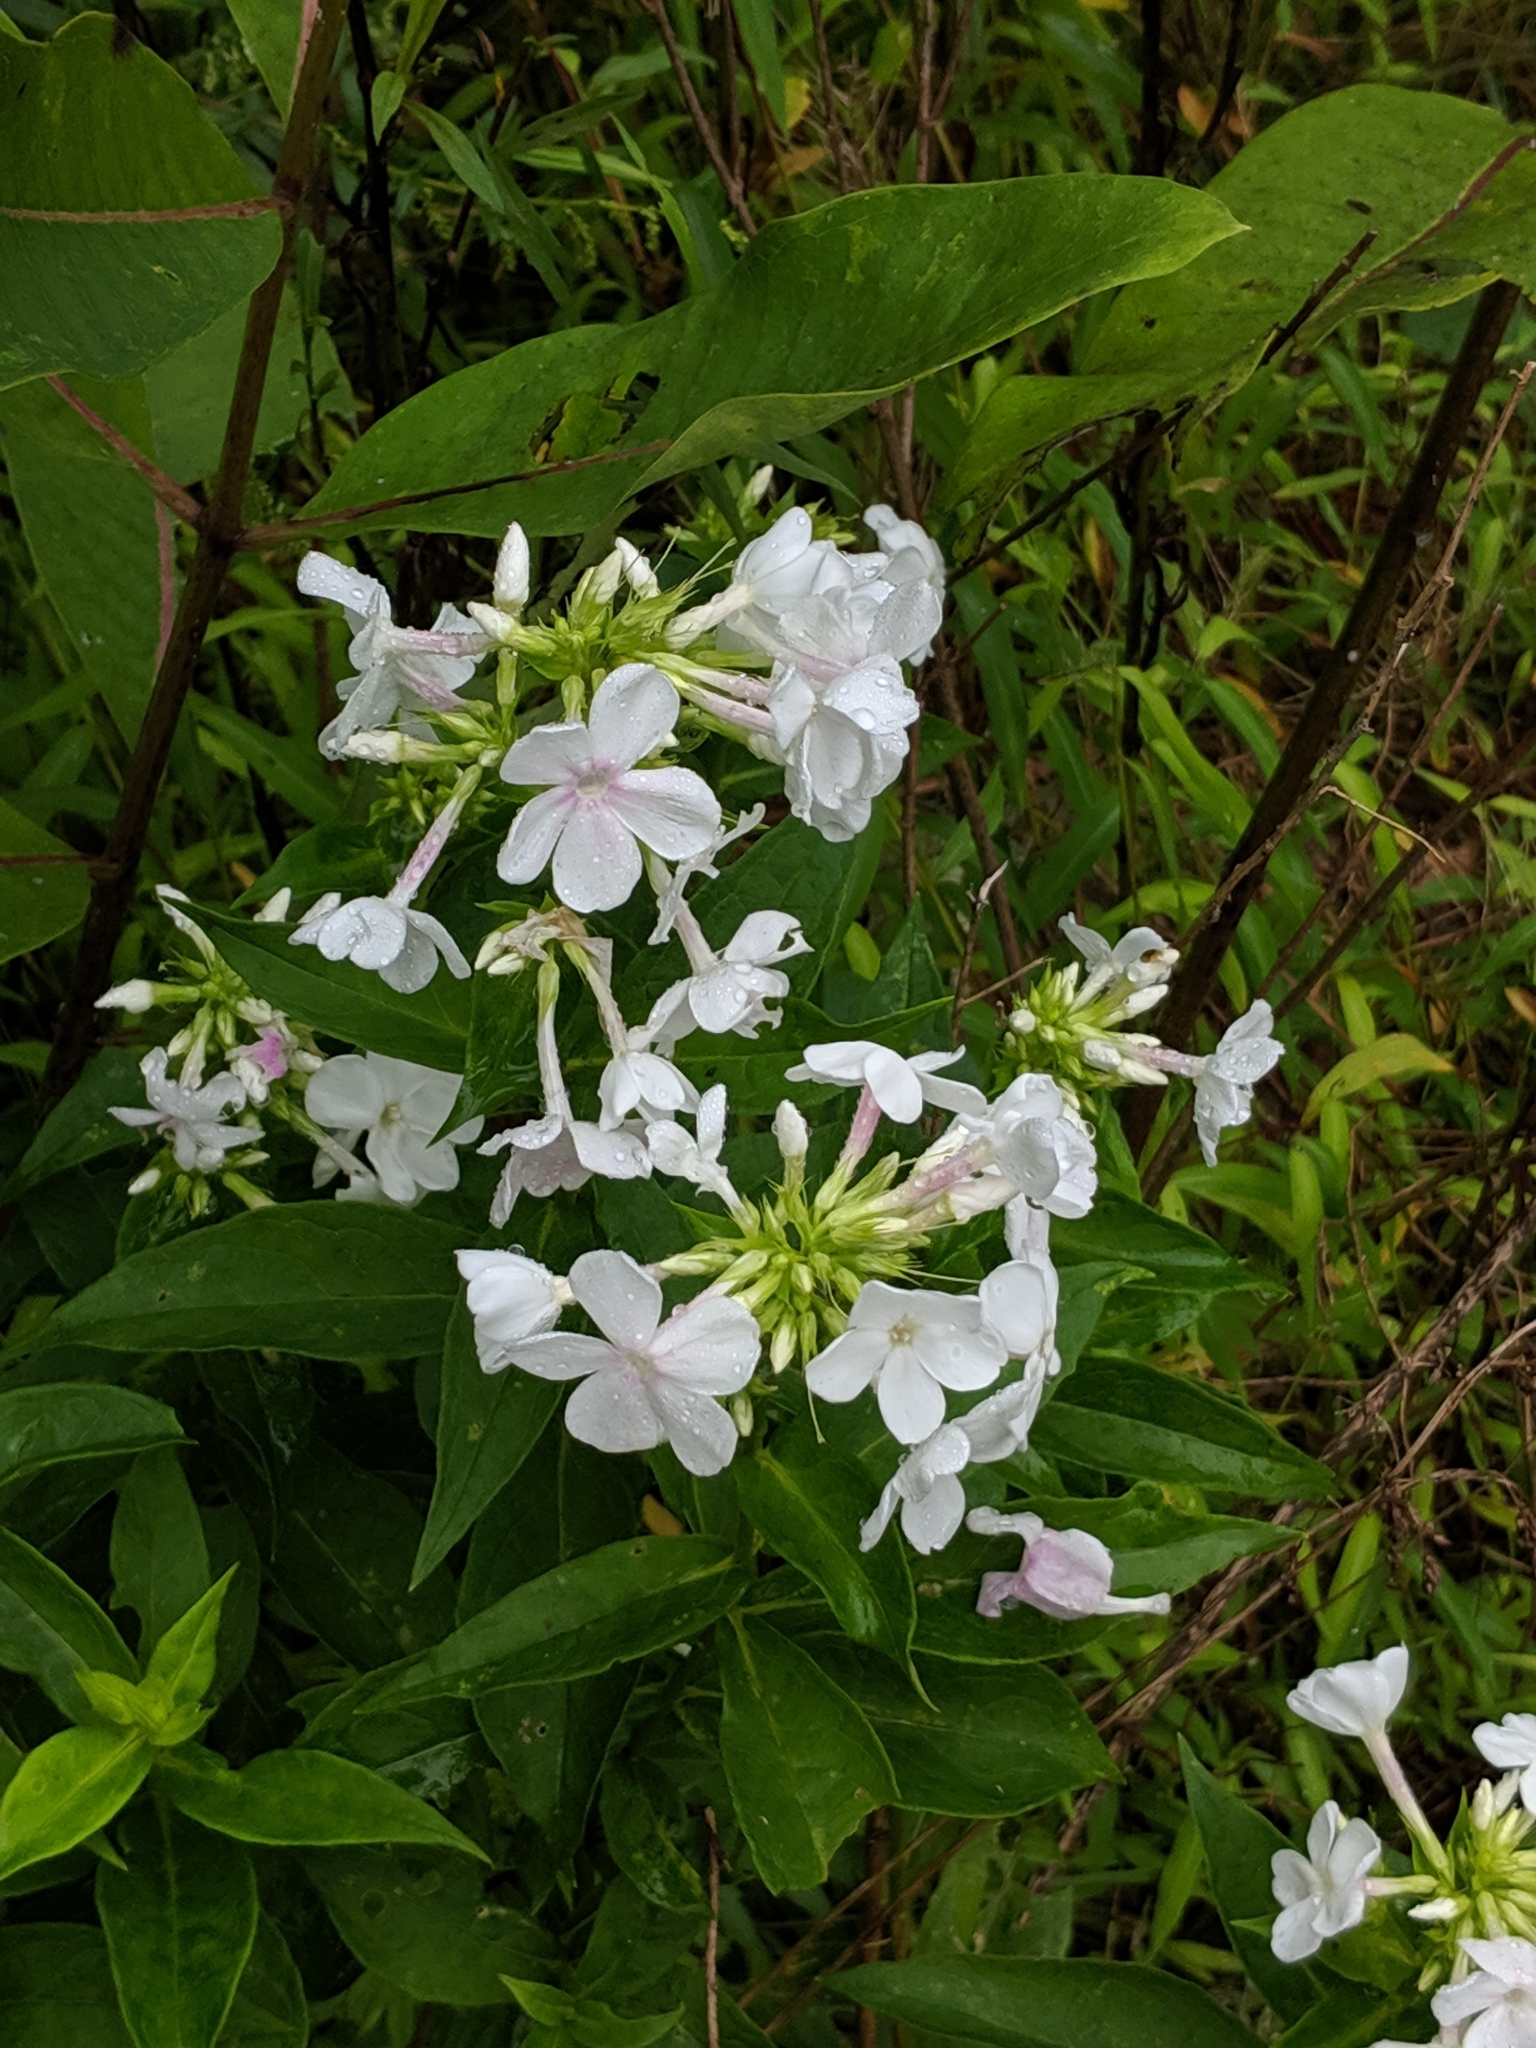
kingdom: Plantae
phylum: Tracheophyta
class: Magnoliopsida
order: Ericales
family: Polemoniaceae
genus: Phlox
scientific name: Phlox paniculata
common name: Fall phlox
